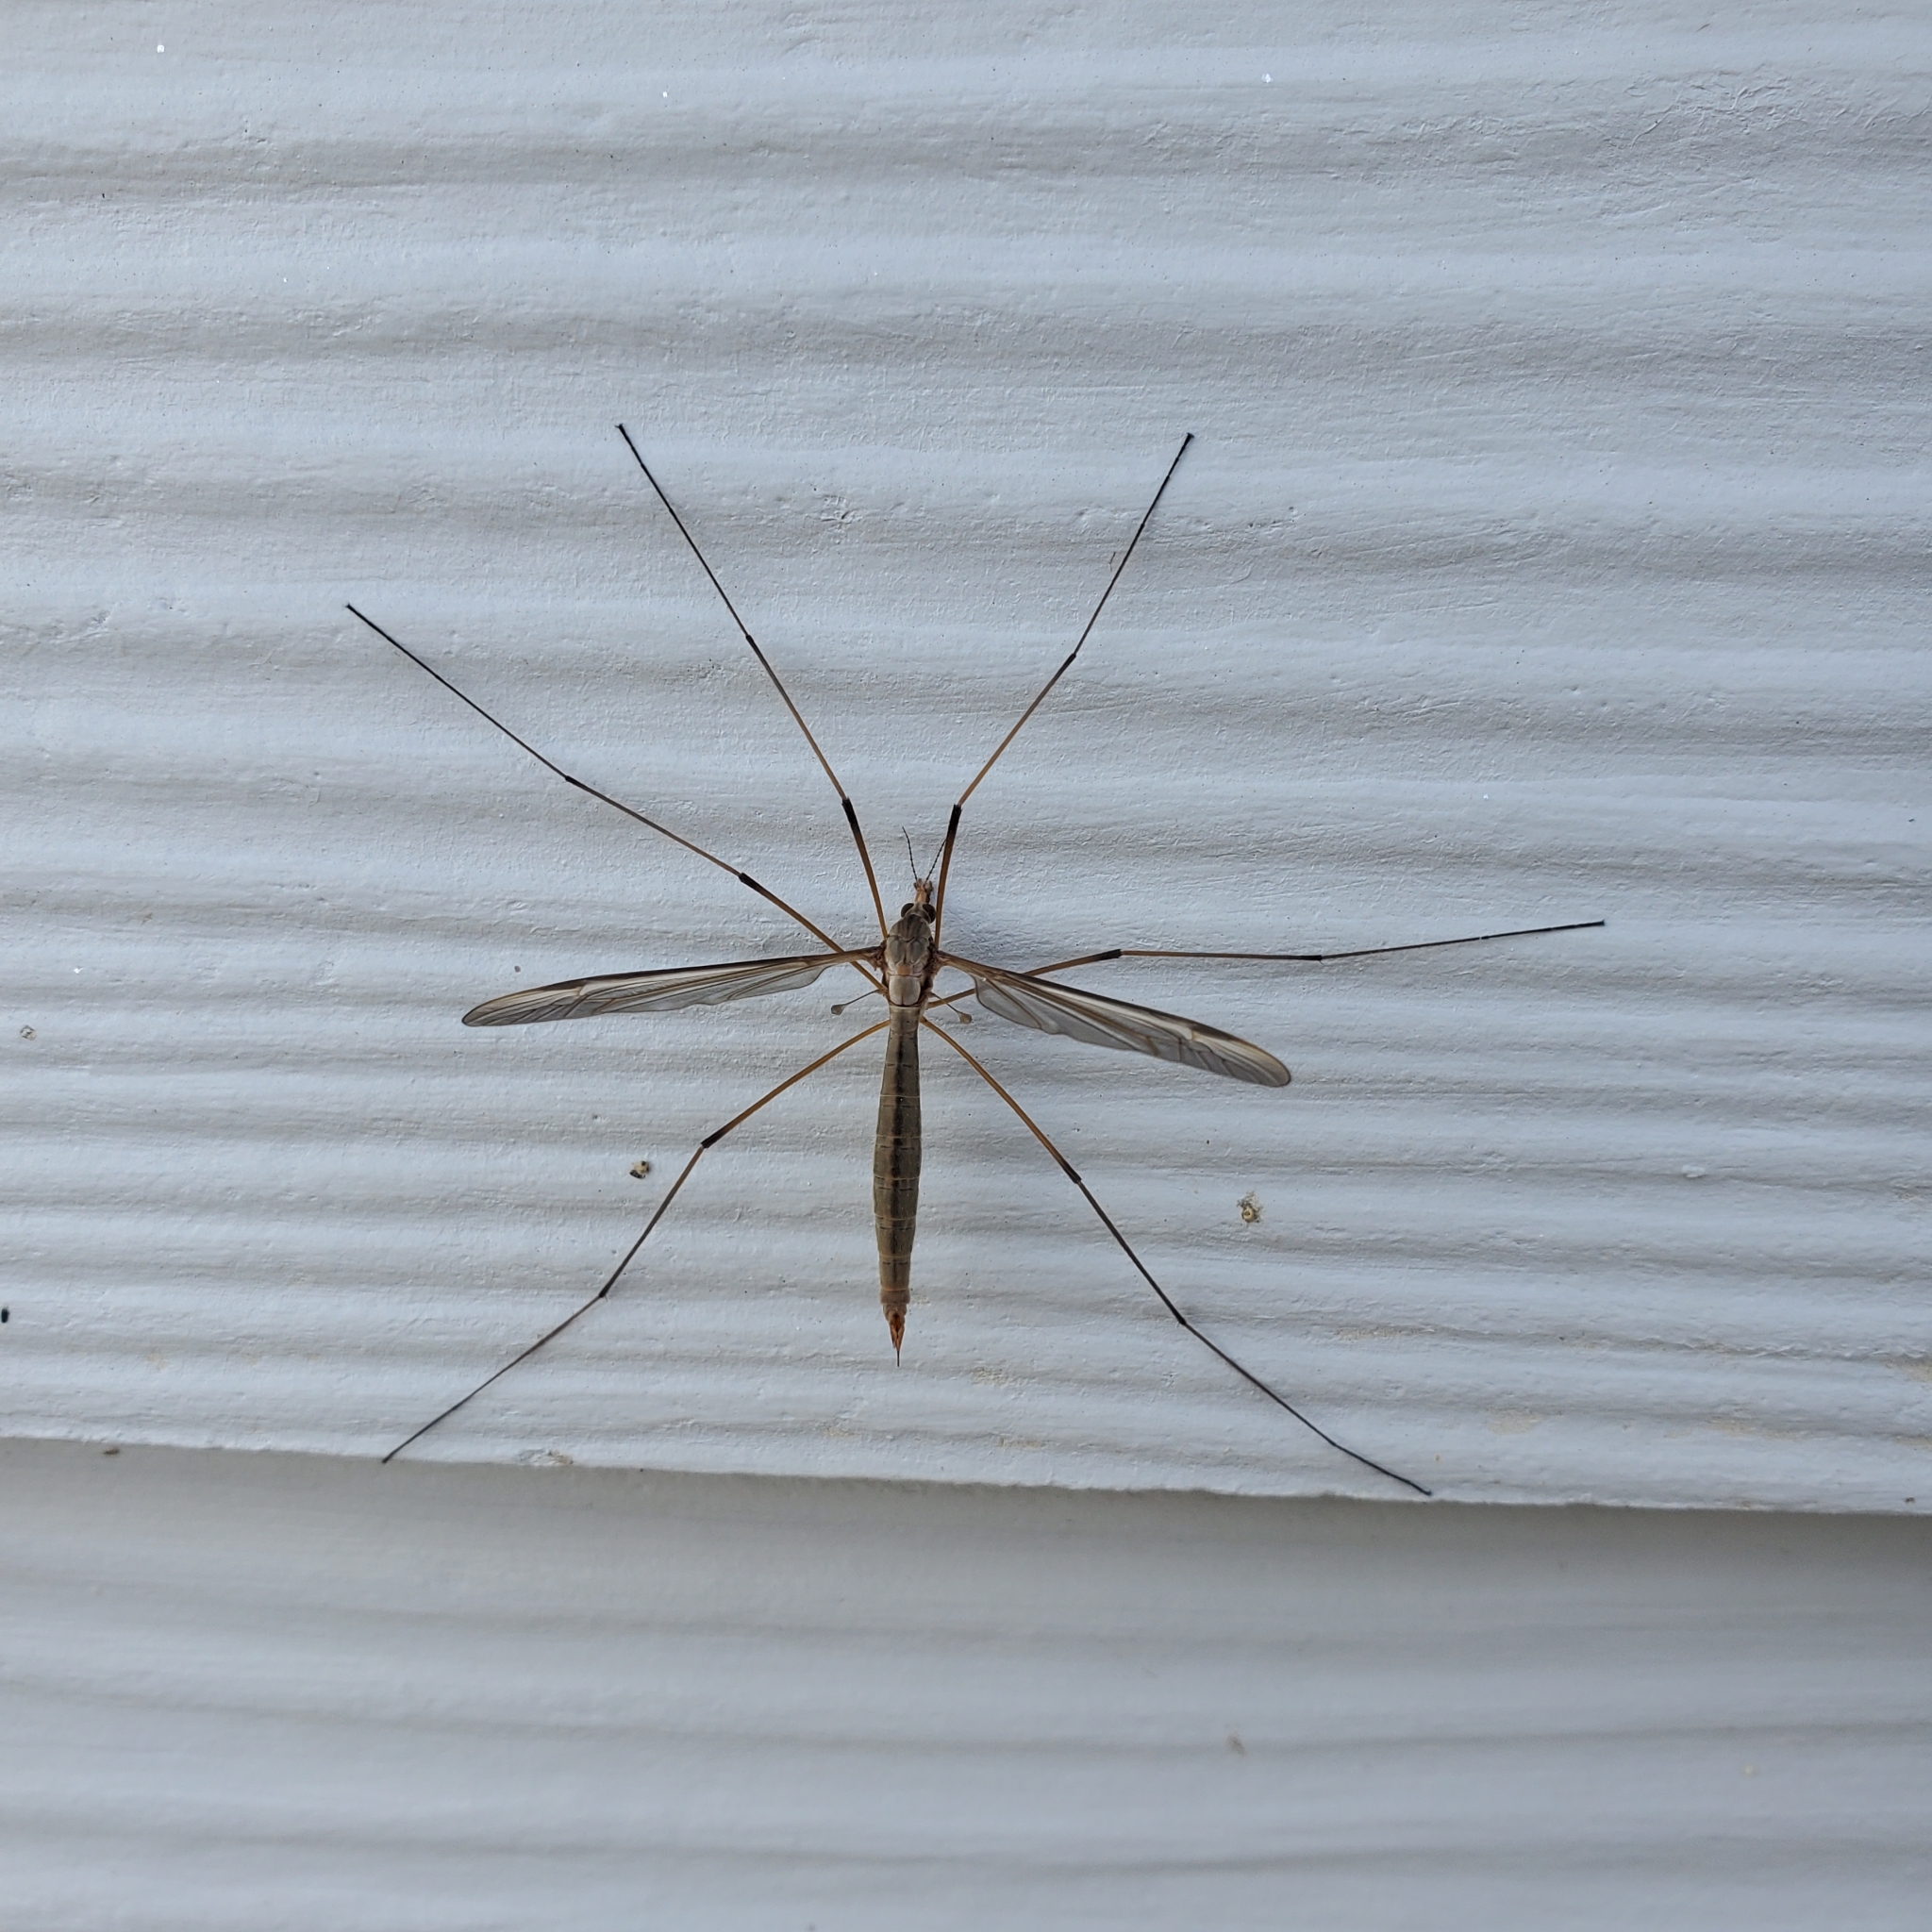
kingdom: Animalia
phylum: Arthropoda
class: Insecta
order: Diptera
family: Tipulidae
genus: Tipula
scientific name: Tipula oleracea
